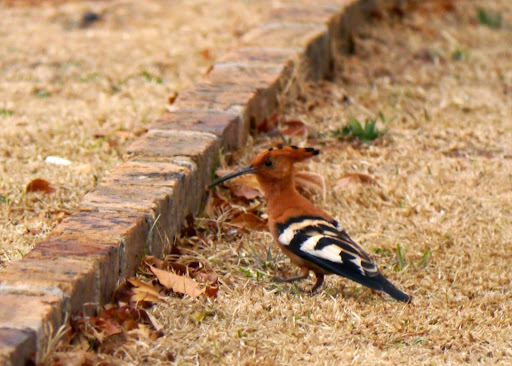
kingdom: Animalia
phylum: Chordata
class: Aves
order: Bucerotiformes
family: Upupidae
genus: Upupa
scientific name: Upupa africana
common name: African hoopoe
